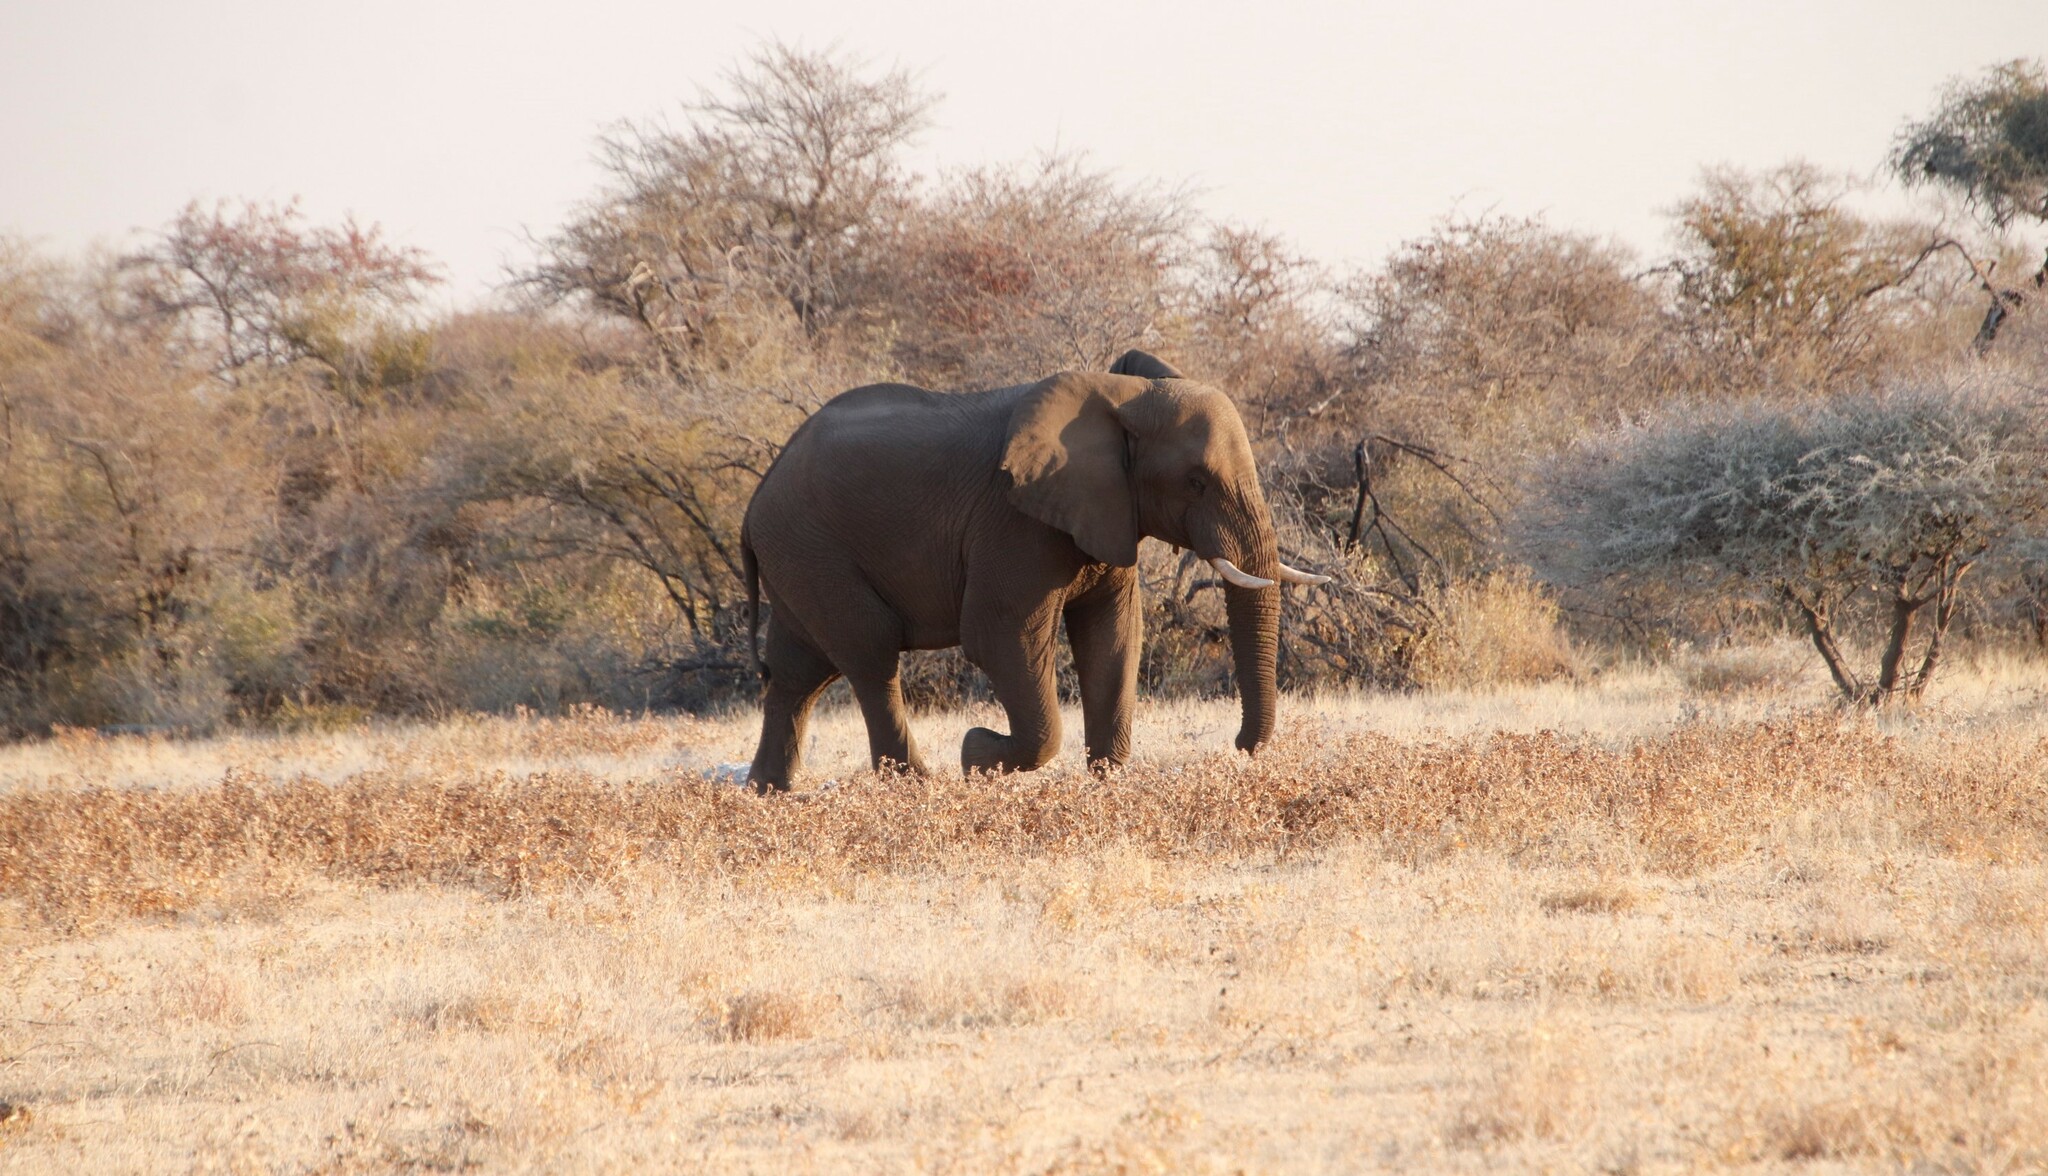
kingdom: Plantae
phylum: Tracheophyta
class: Magnoliopsida
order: Fabales
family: Fabaceae
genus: Colophospermum
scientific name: Colophospermum mopane
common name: Mopane
